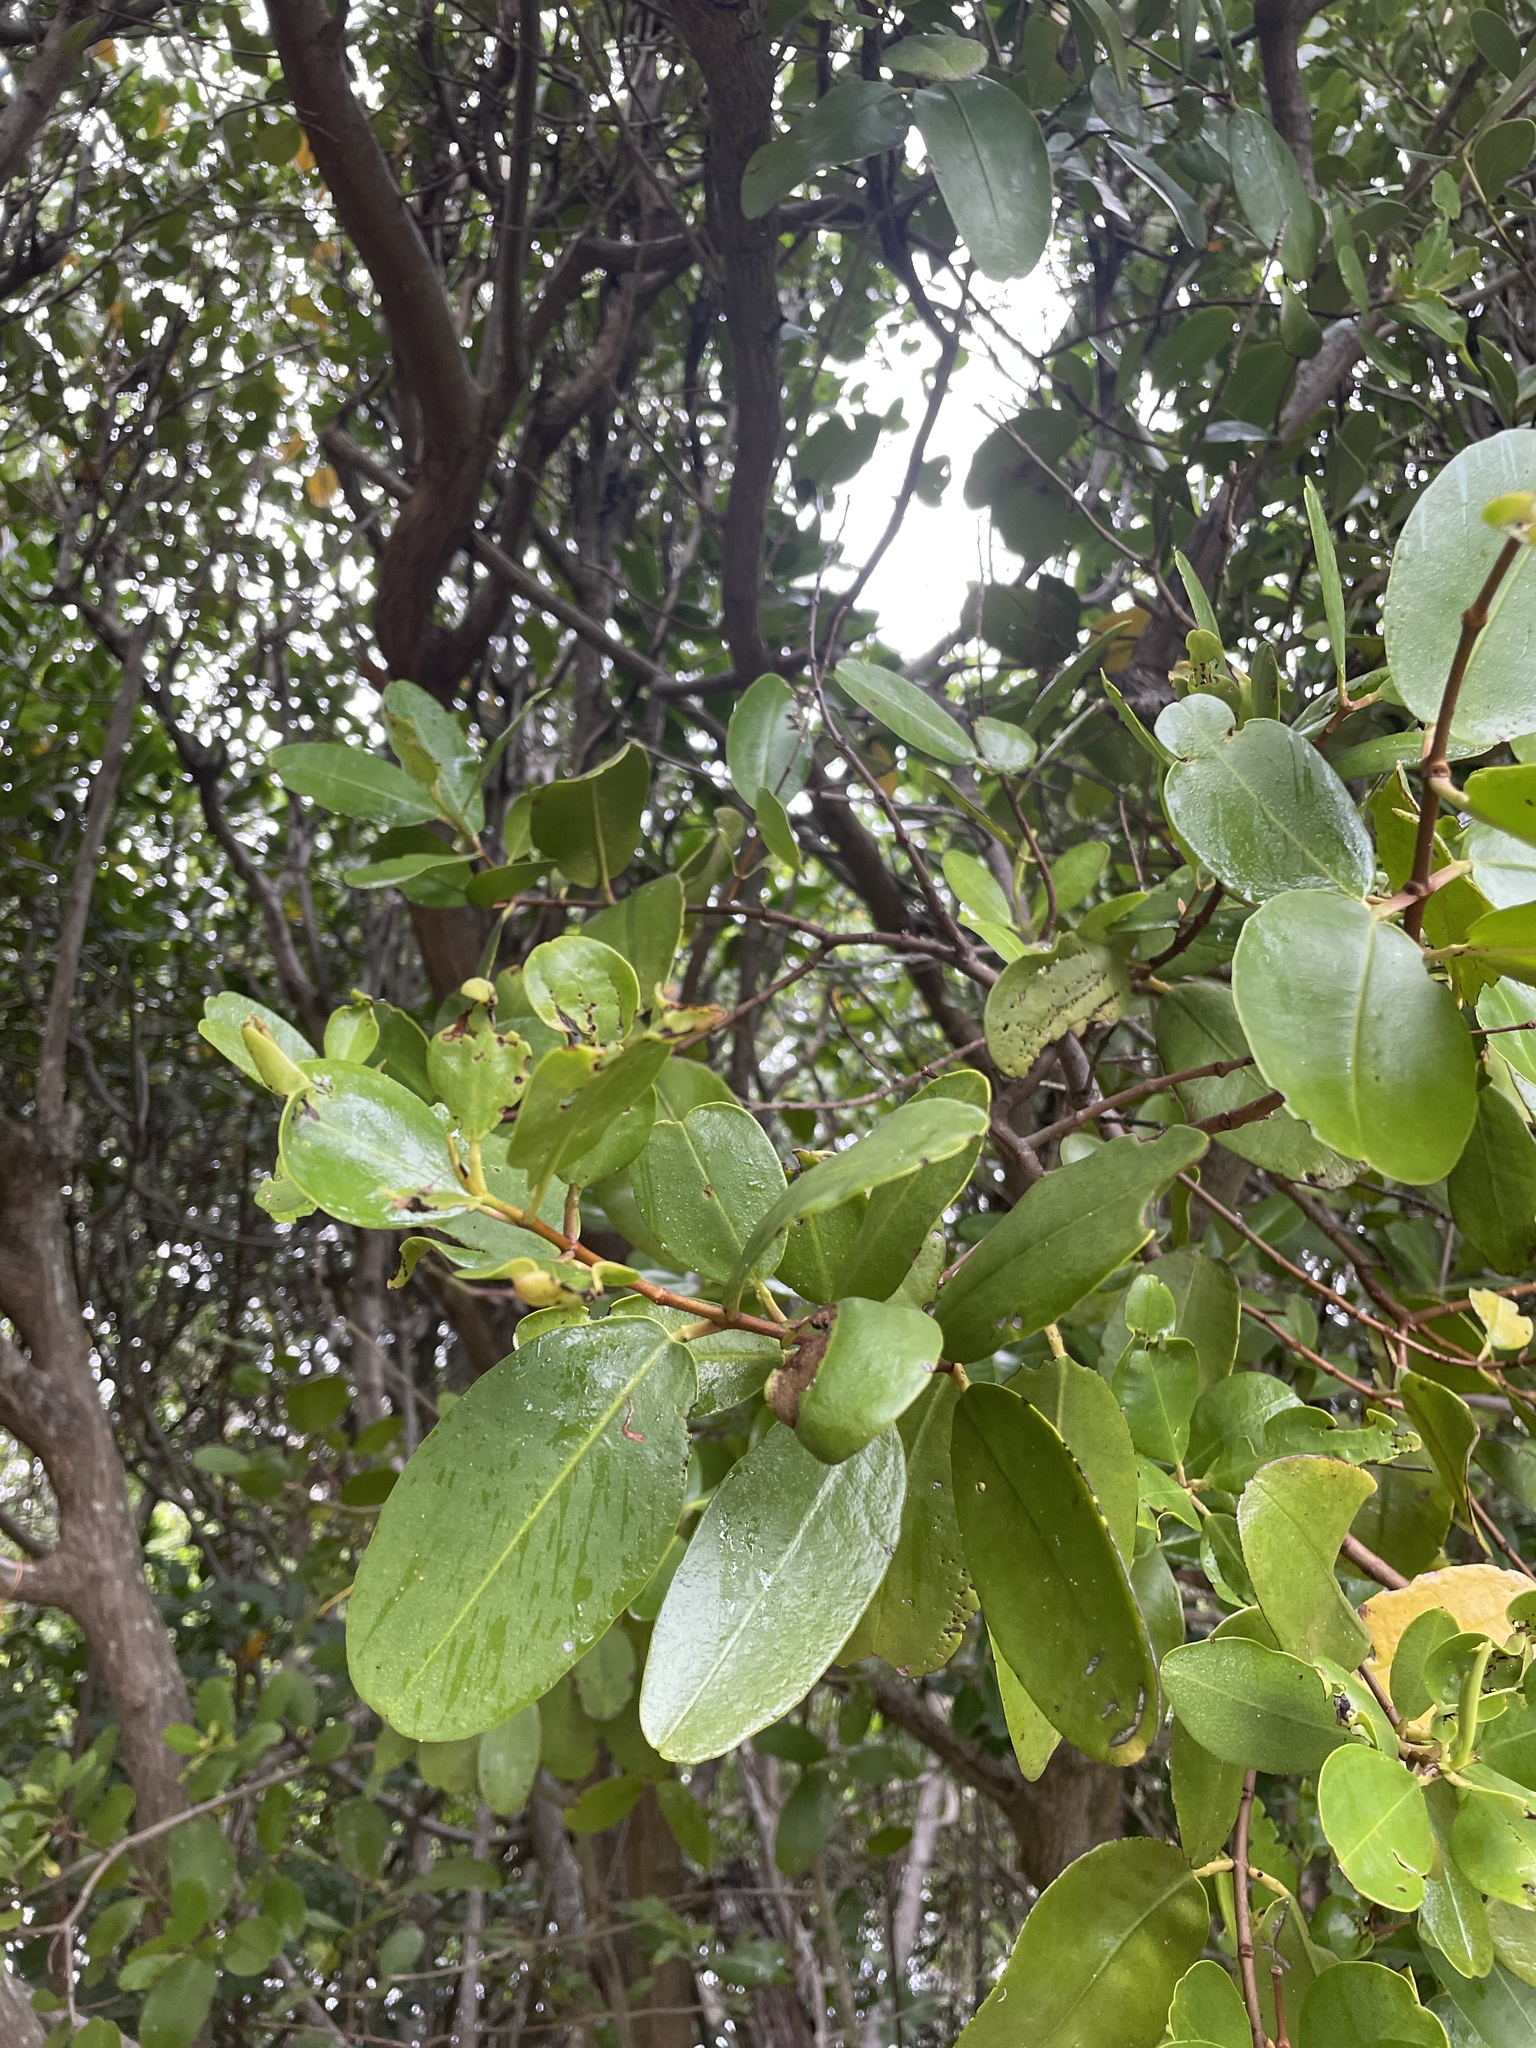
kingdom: Plantae
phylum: Tracheophyta
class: Magnoliopsida
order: Myrtales
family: Combretaceae
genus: Laguncularia
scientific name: Laguncularia racemosa
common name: White mangrove
